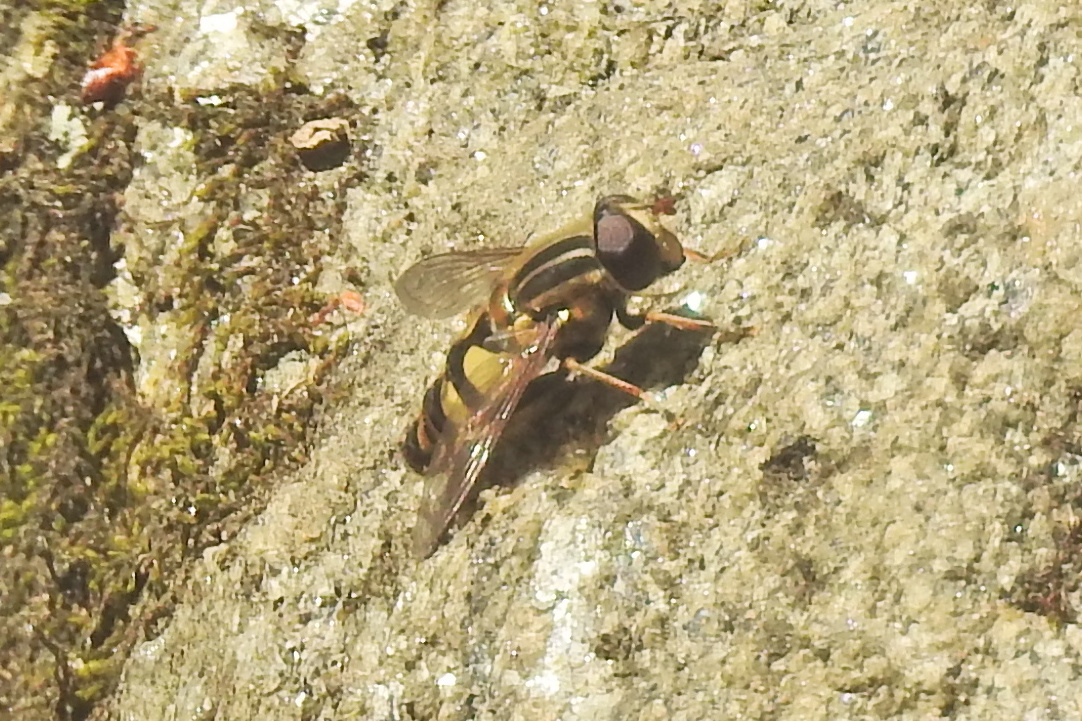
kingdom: Animalia
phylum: Arthropoda
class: Insecta
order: Diptera
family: Syrphidae
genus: Helophilus
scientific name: Helophilus fasciatus
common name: Narrow-headed marsh fly
